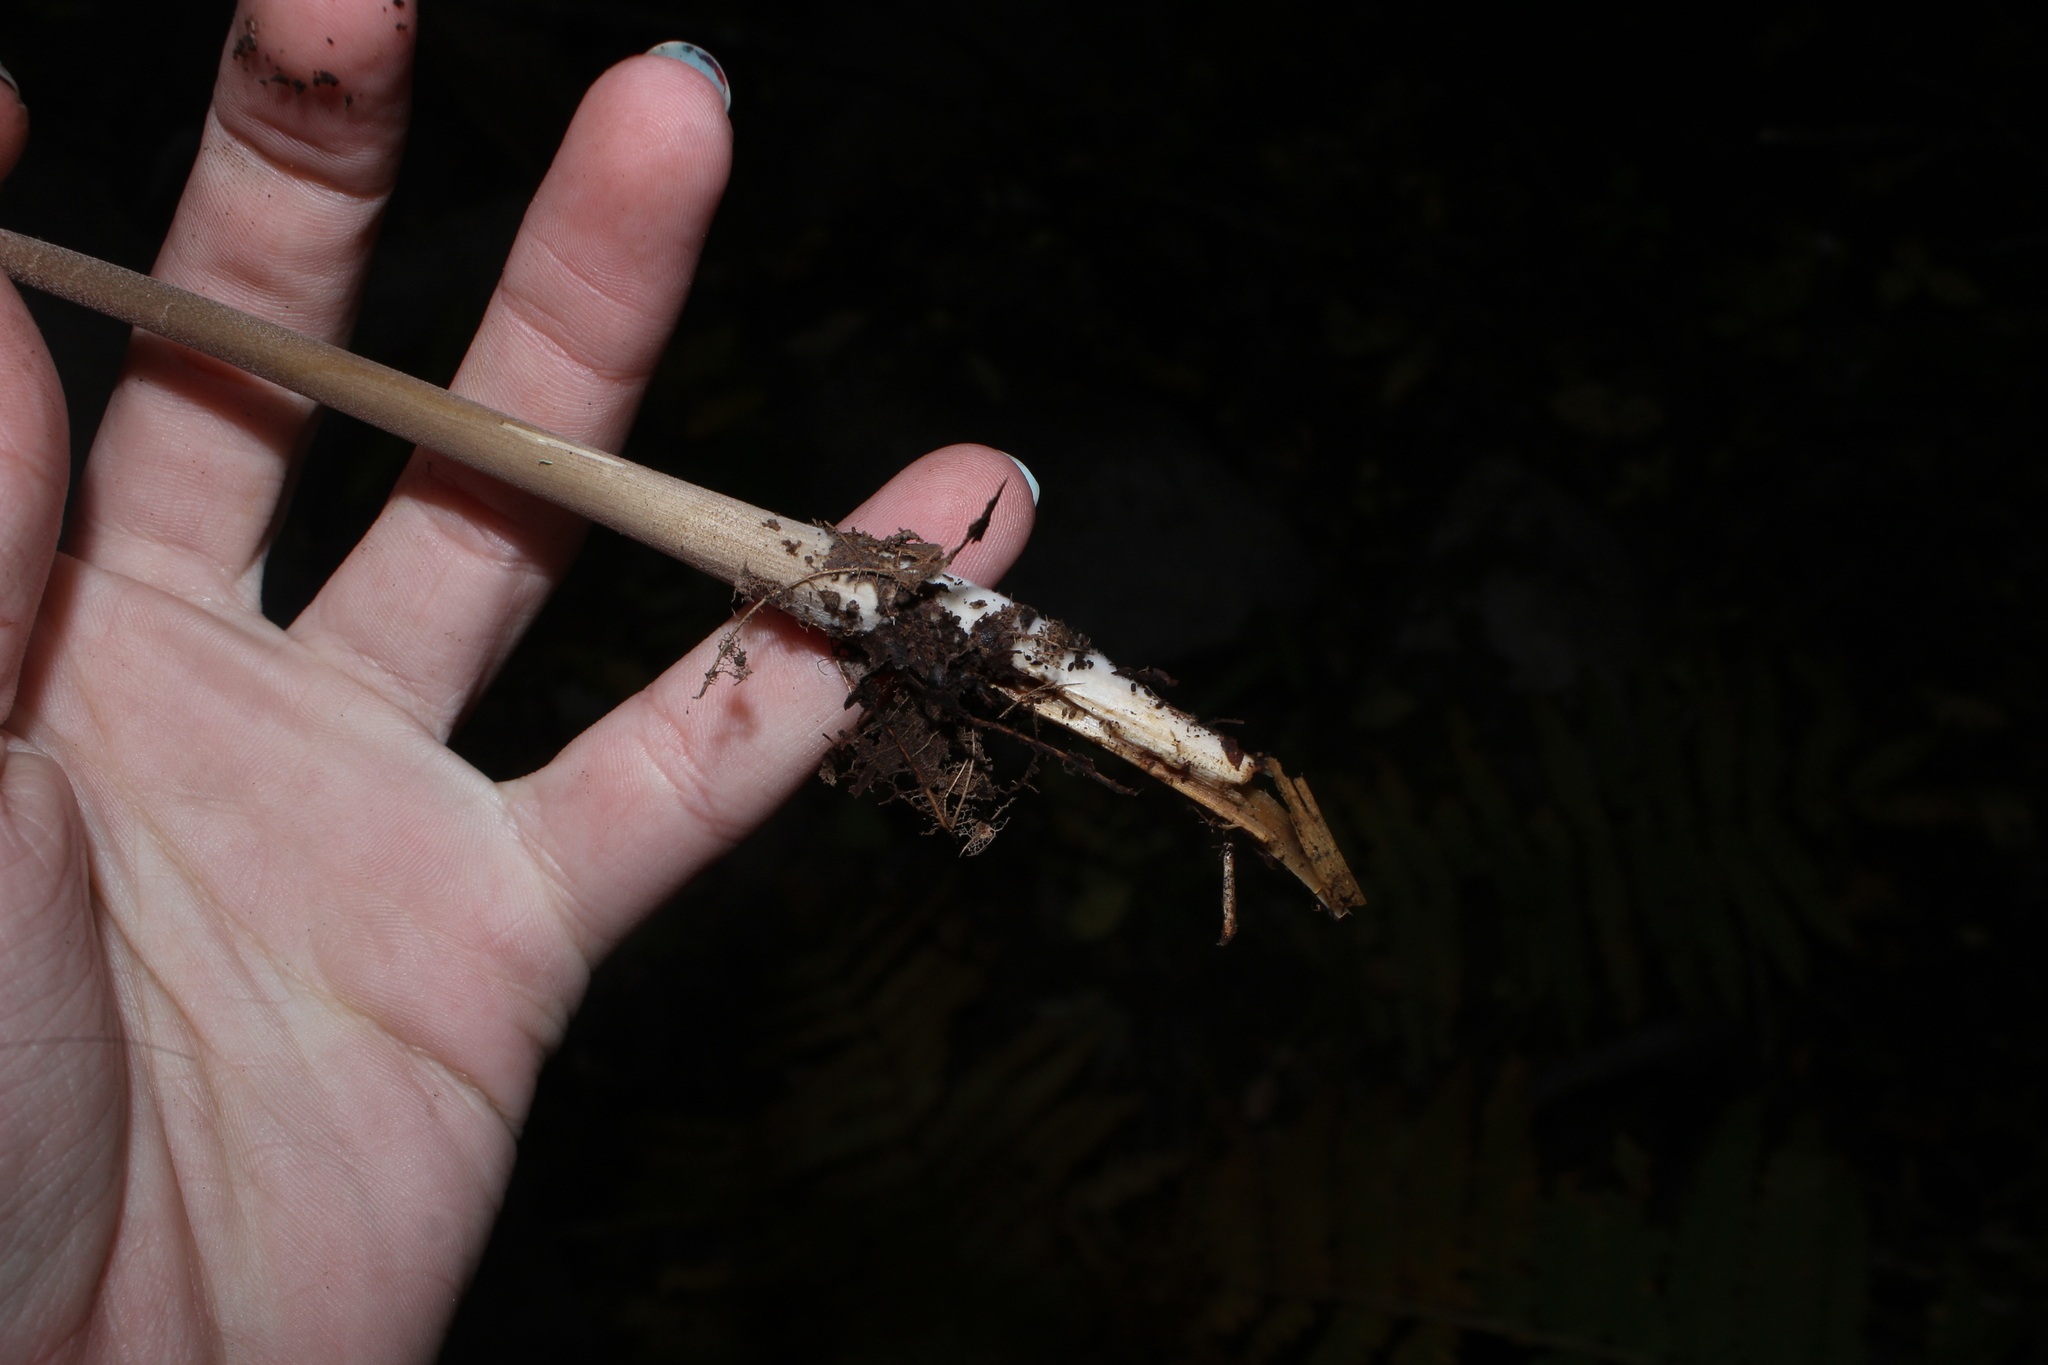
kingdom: Fungi
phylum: Basidiomycota
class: Agaricomycetes
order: Agaricales
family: Physalacriaceae
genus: Hymenopellis
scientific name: Hymenopellis furfuracea
